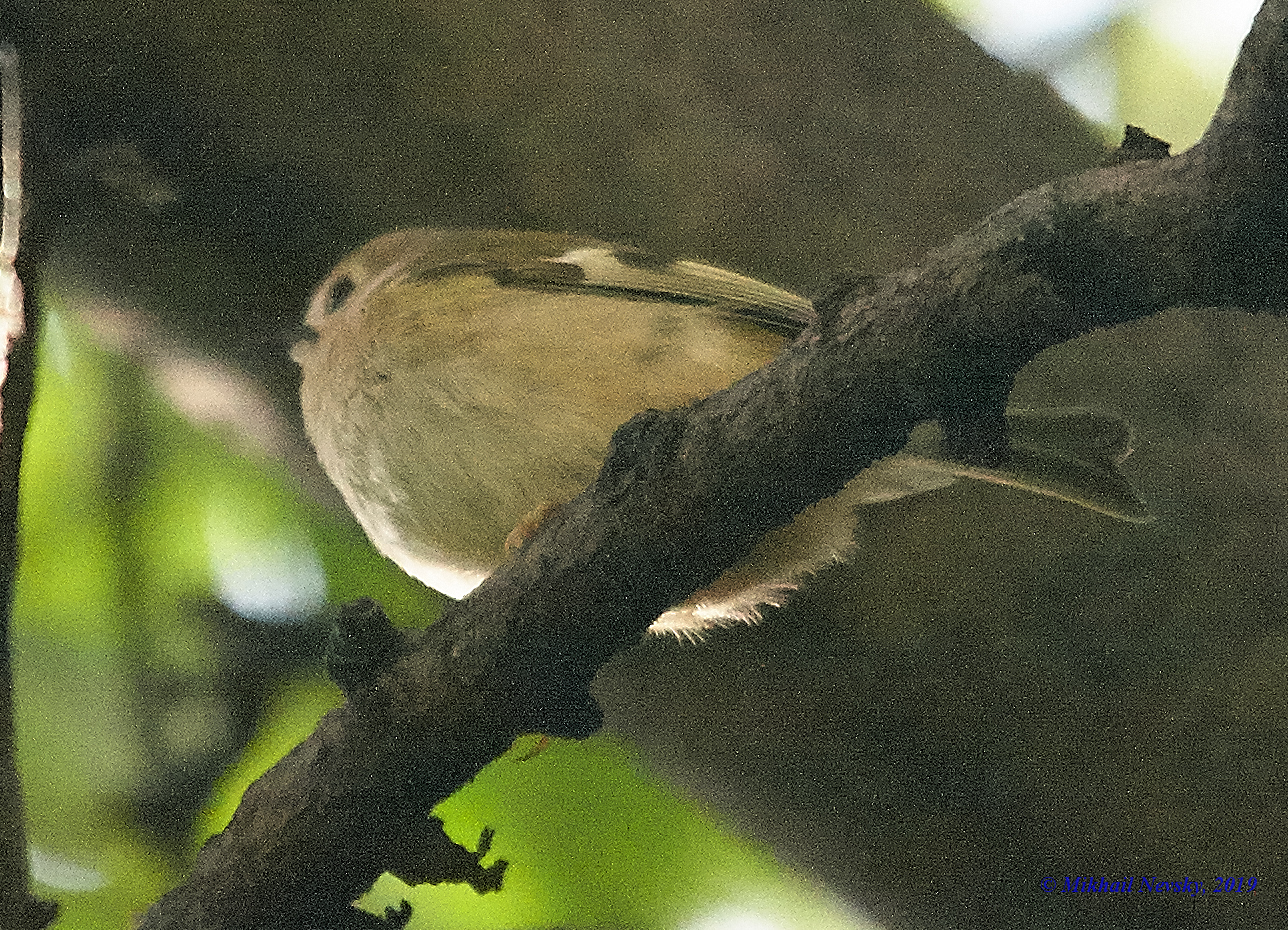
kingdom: Animalia
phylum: Chordata
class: Aves
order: Passeriformes
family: Regulidae
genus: Regulus
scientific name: Regulus regulus
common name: Goldcrest
